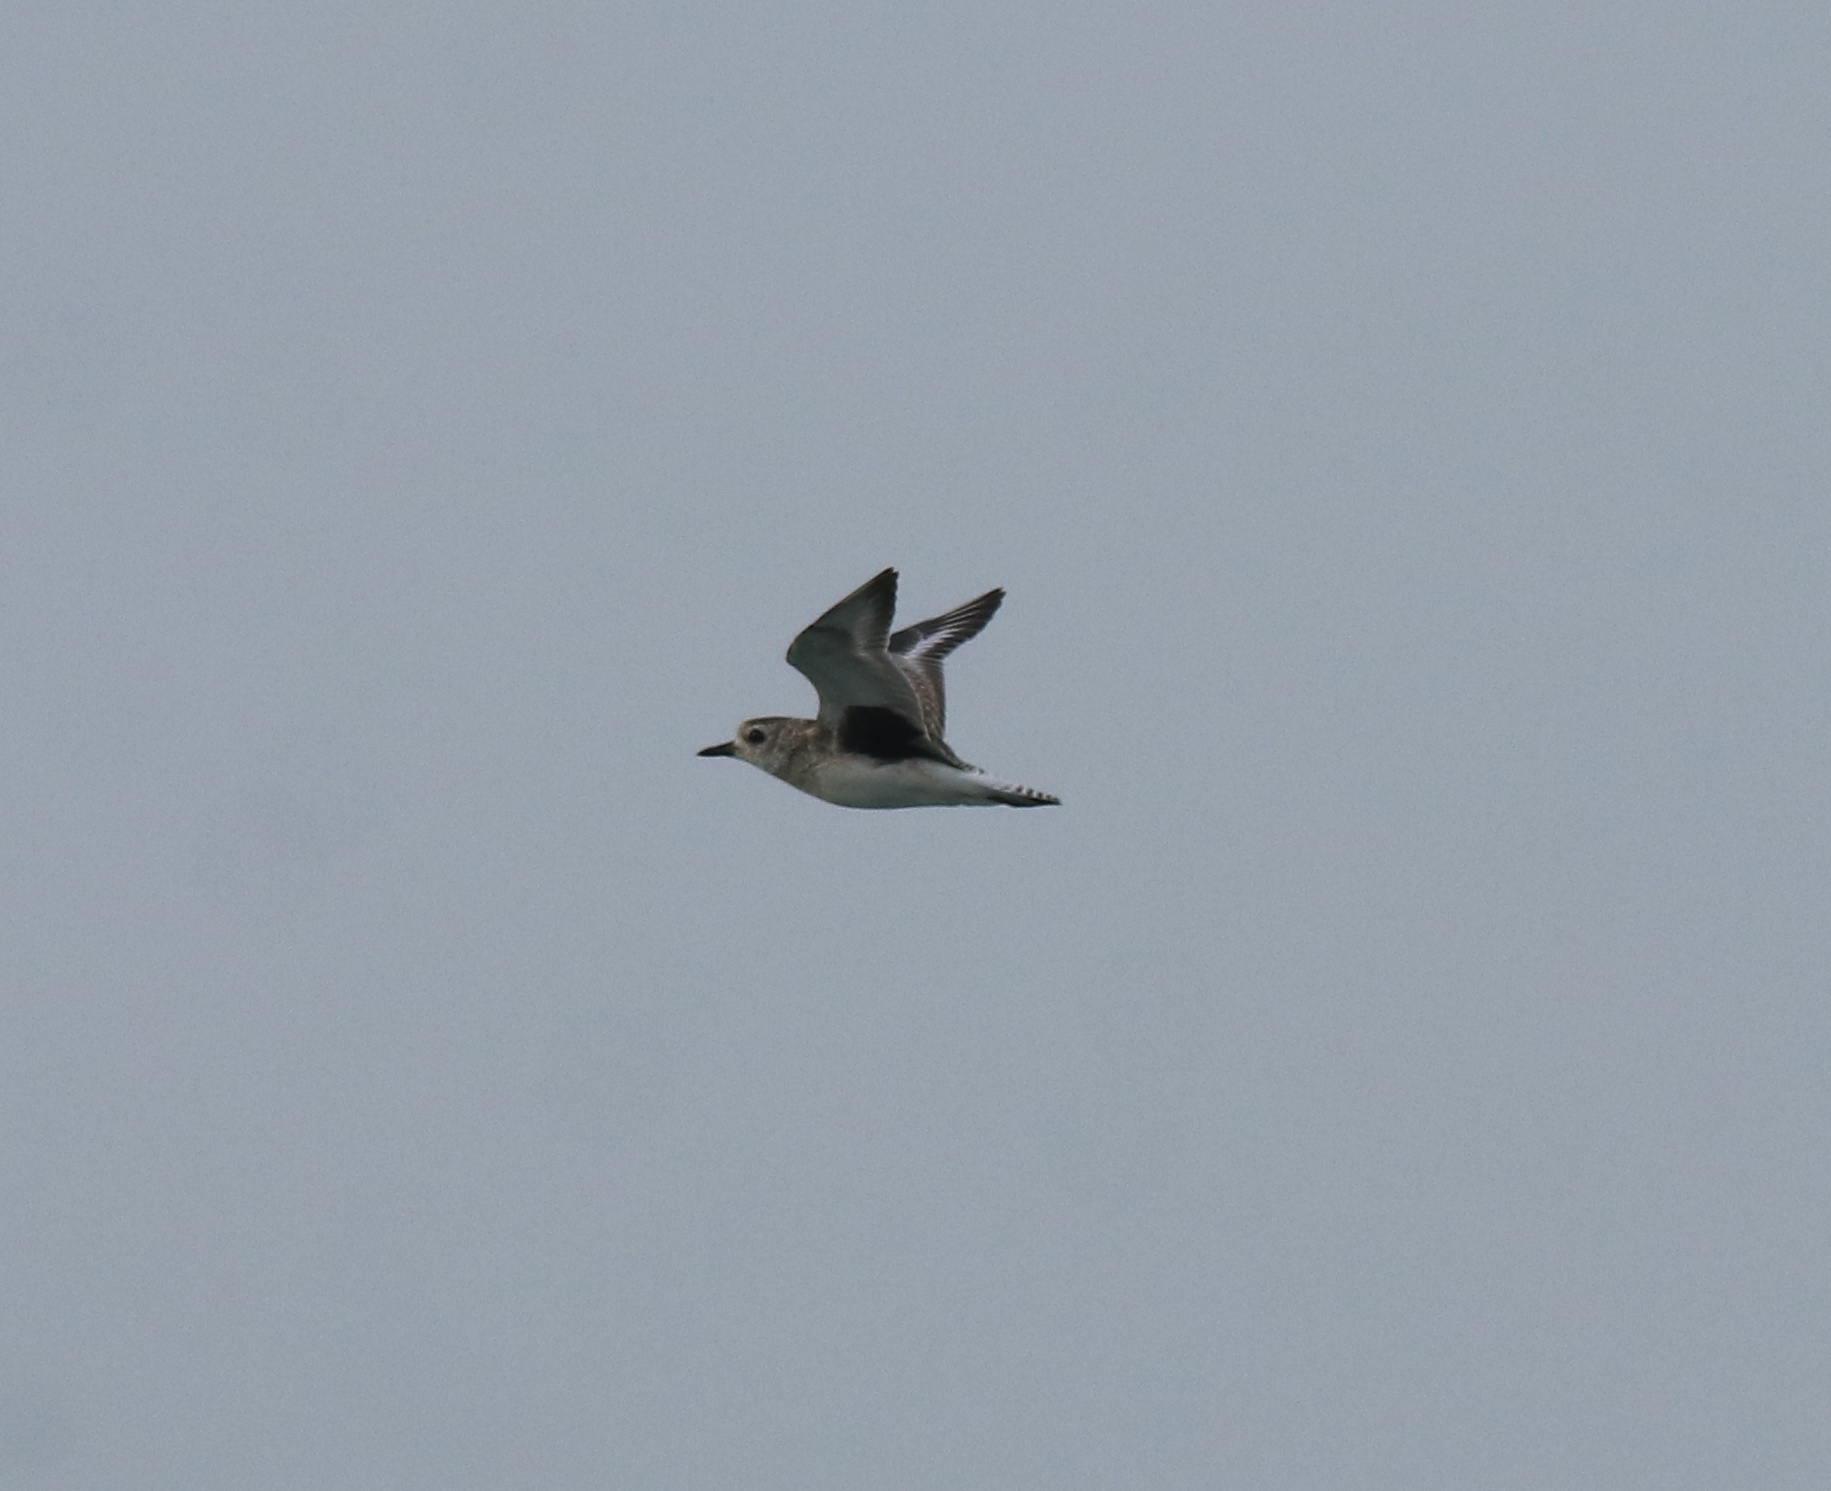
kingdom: Animalia
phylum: Chordata
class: Aves
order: Charadriiformes
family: Charadriidae
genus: Pluvialis
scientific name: Pluvialis squatarola
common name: Grey plover
